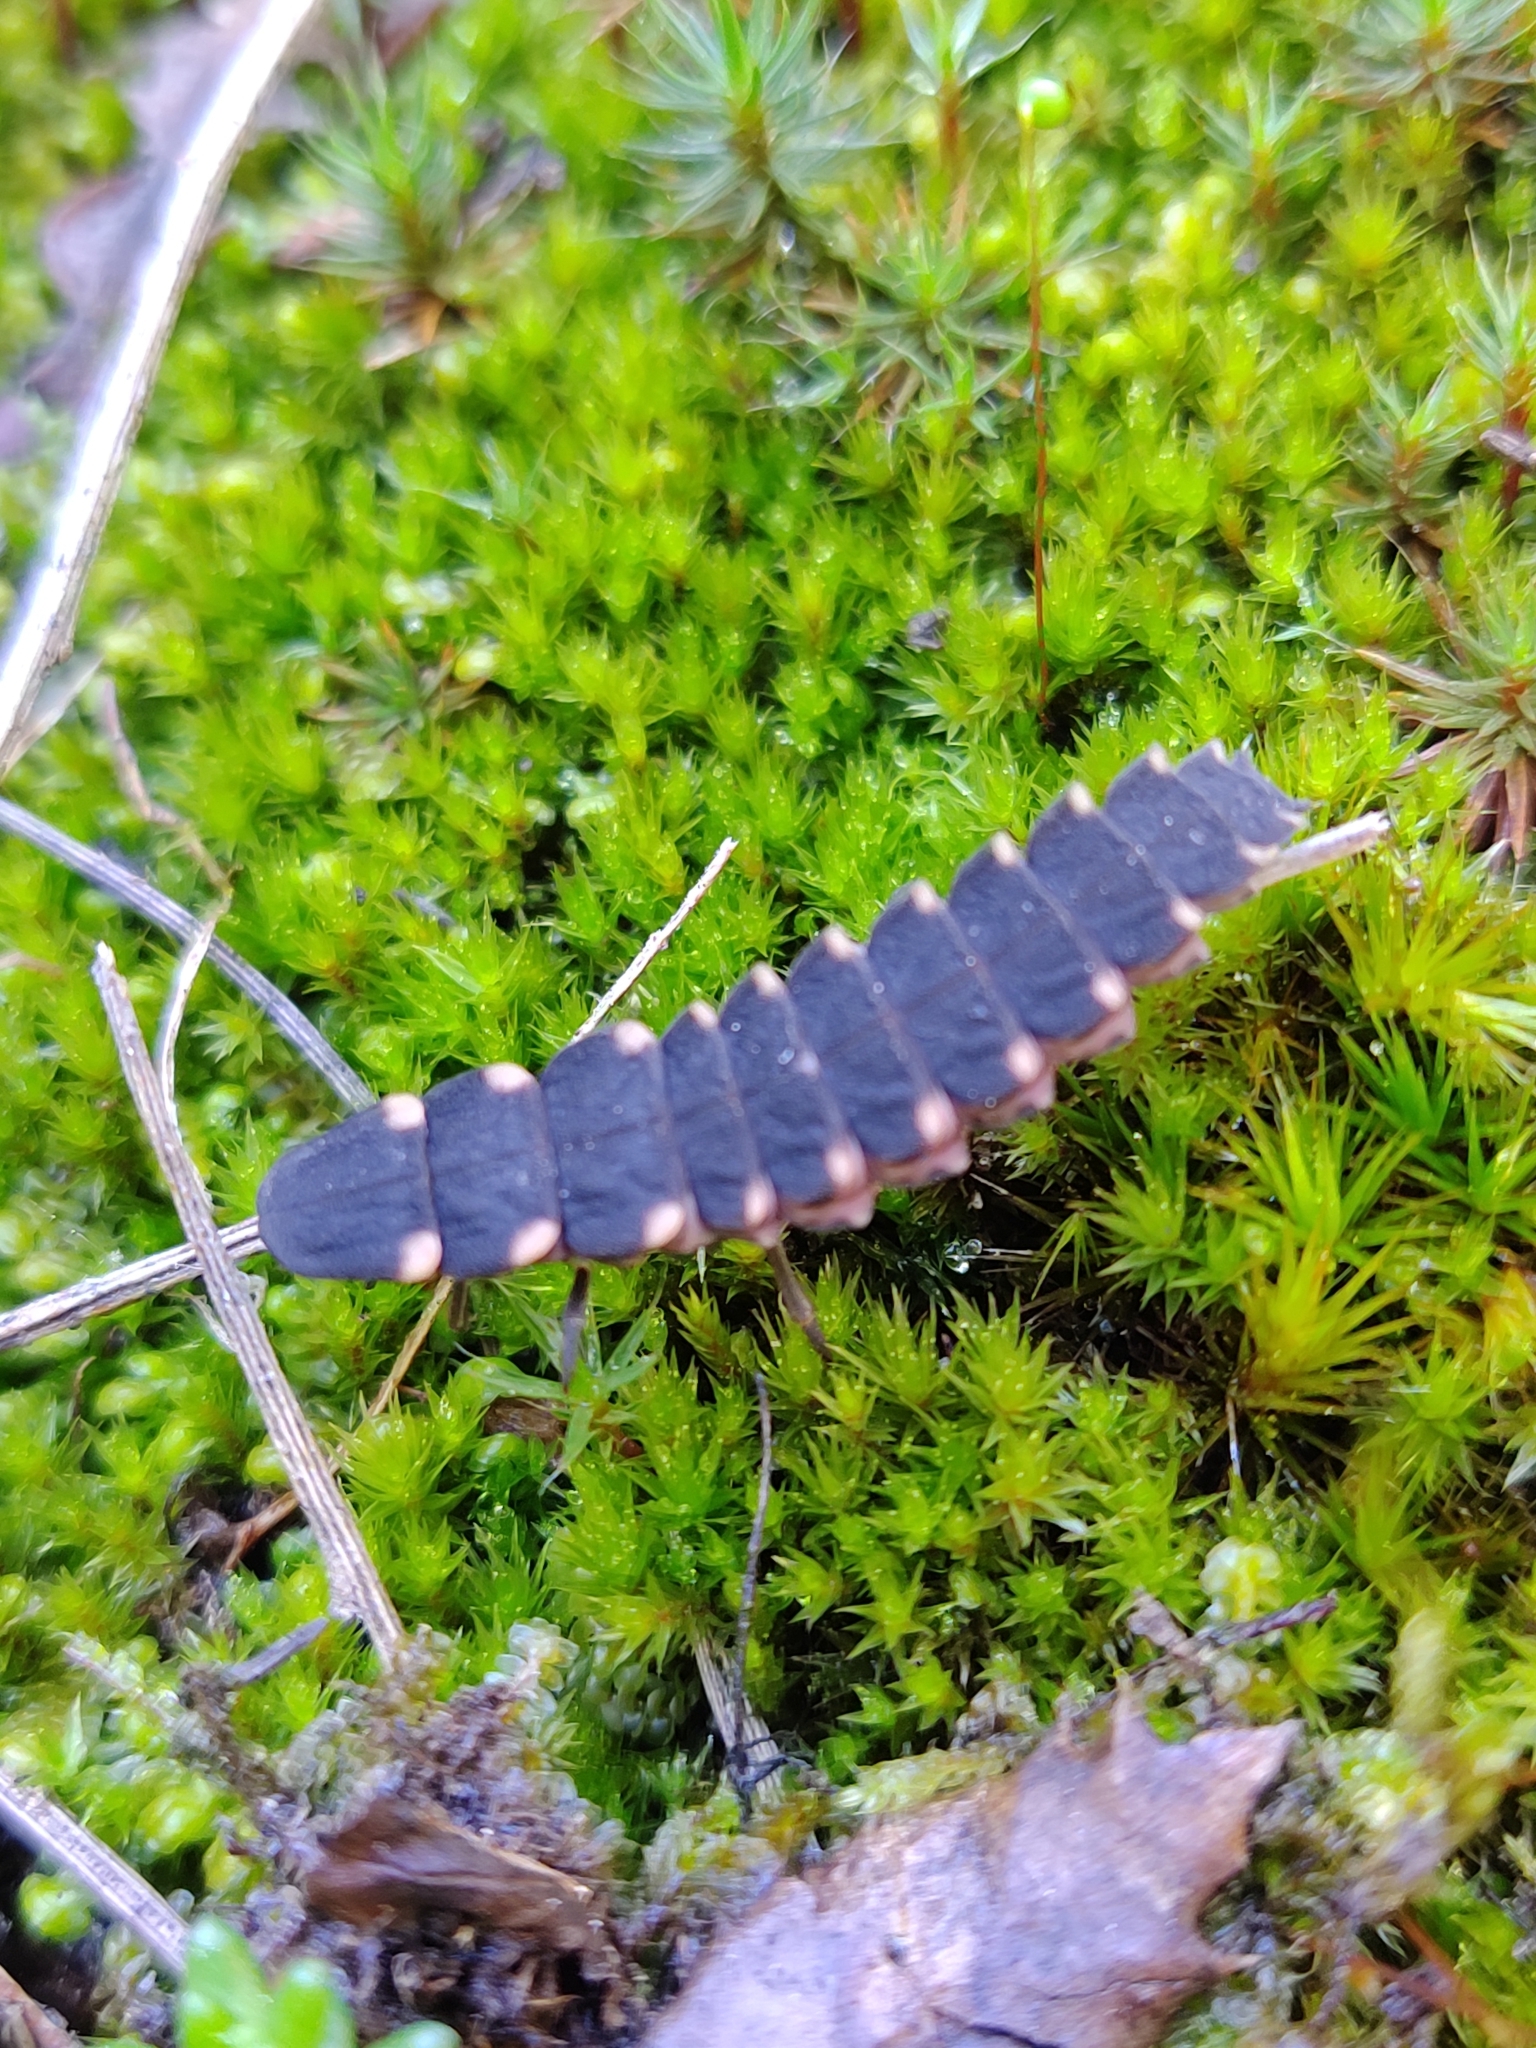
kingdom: Animalia
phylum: Arthropoda
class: Insecta
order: Coleoptera
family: Lampyridae
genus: Lampyris
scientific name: Lampyris noctiluca
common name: Glow-worm
